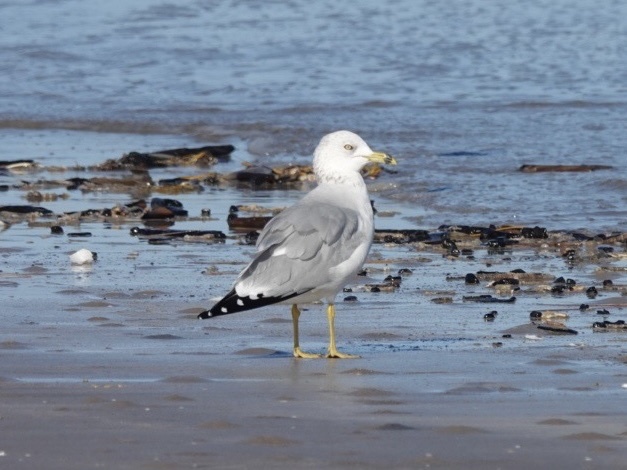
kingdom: Animalia
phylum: Chordata
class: Aves
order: Charadriiformes
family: Laridae
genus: Larus
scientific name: Larus delawarensis
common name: Ring-billed gull
